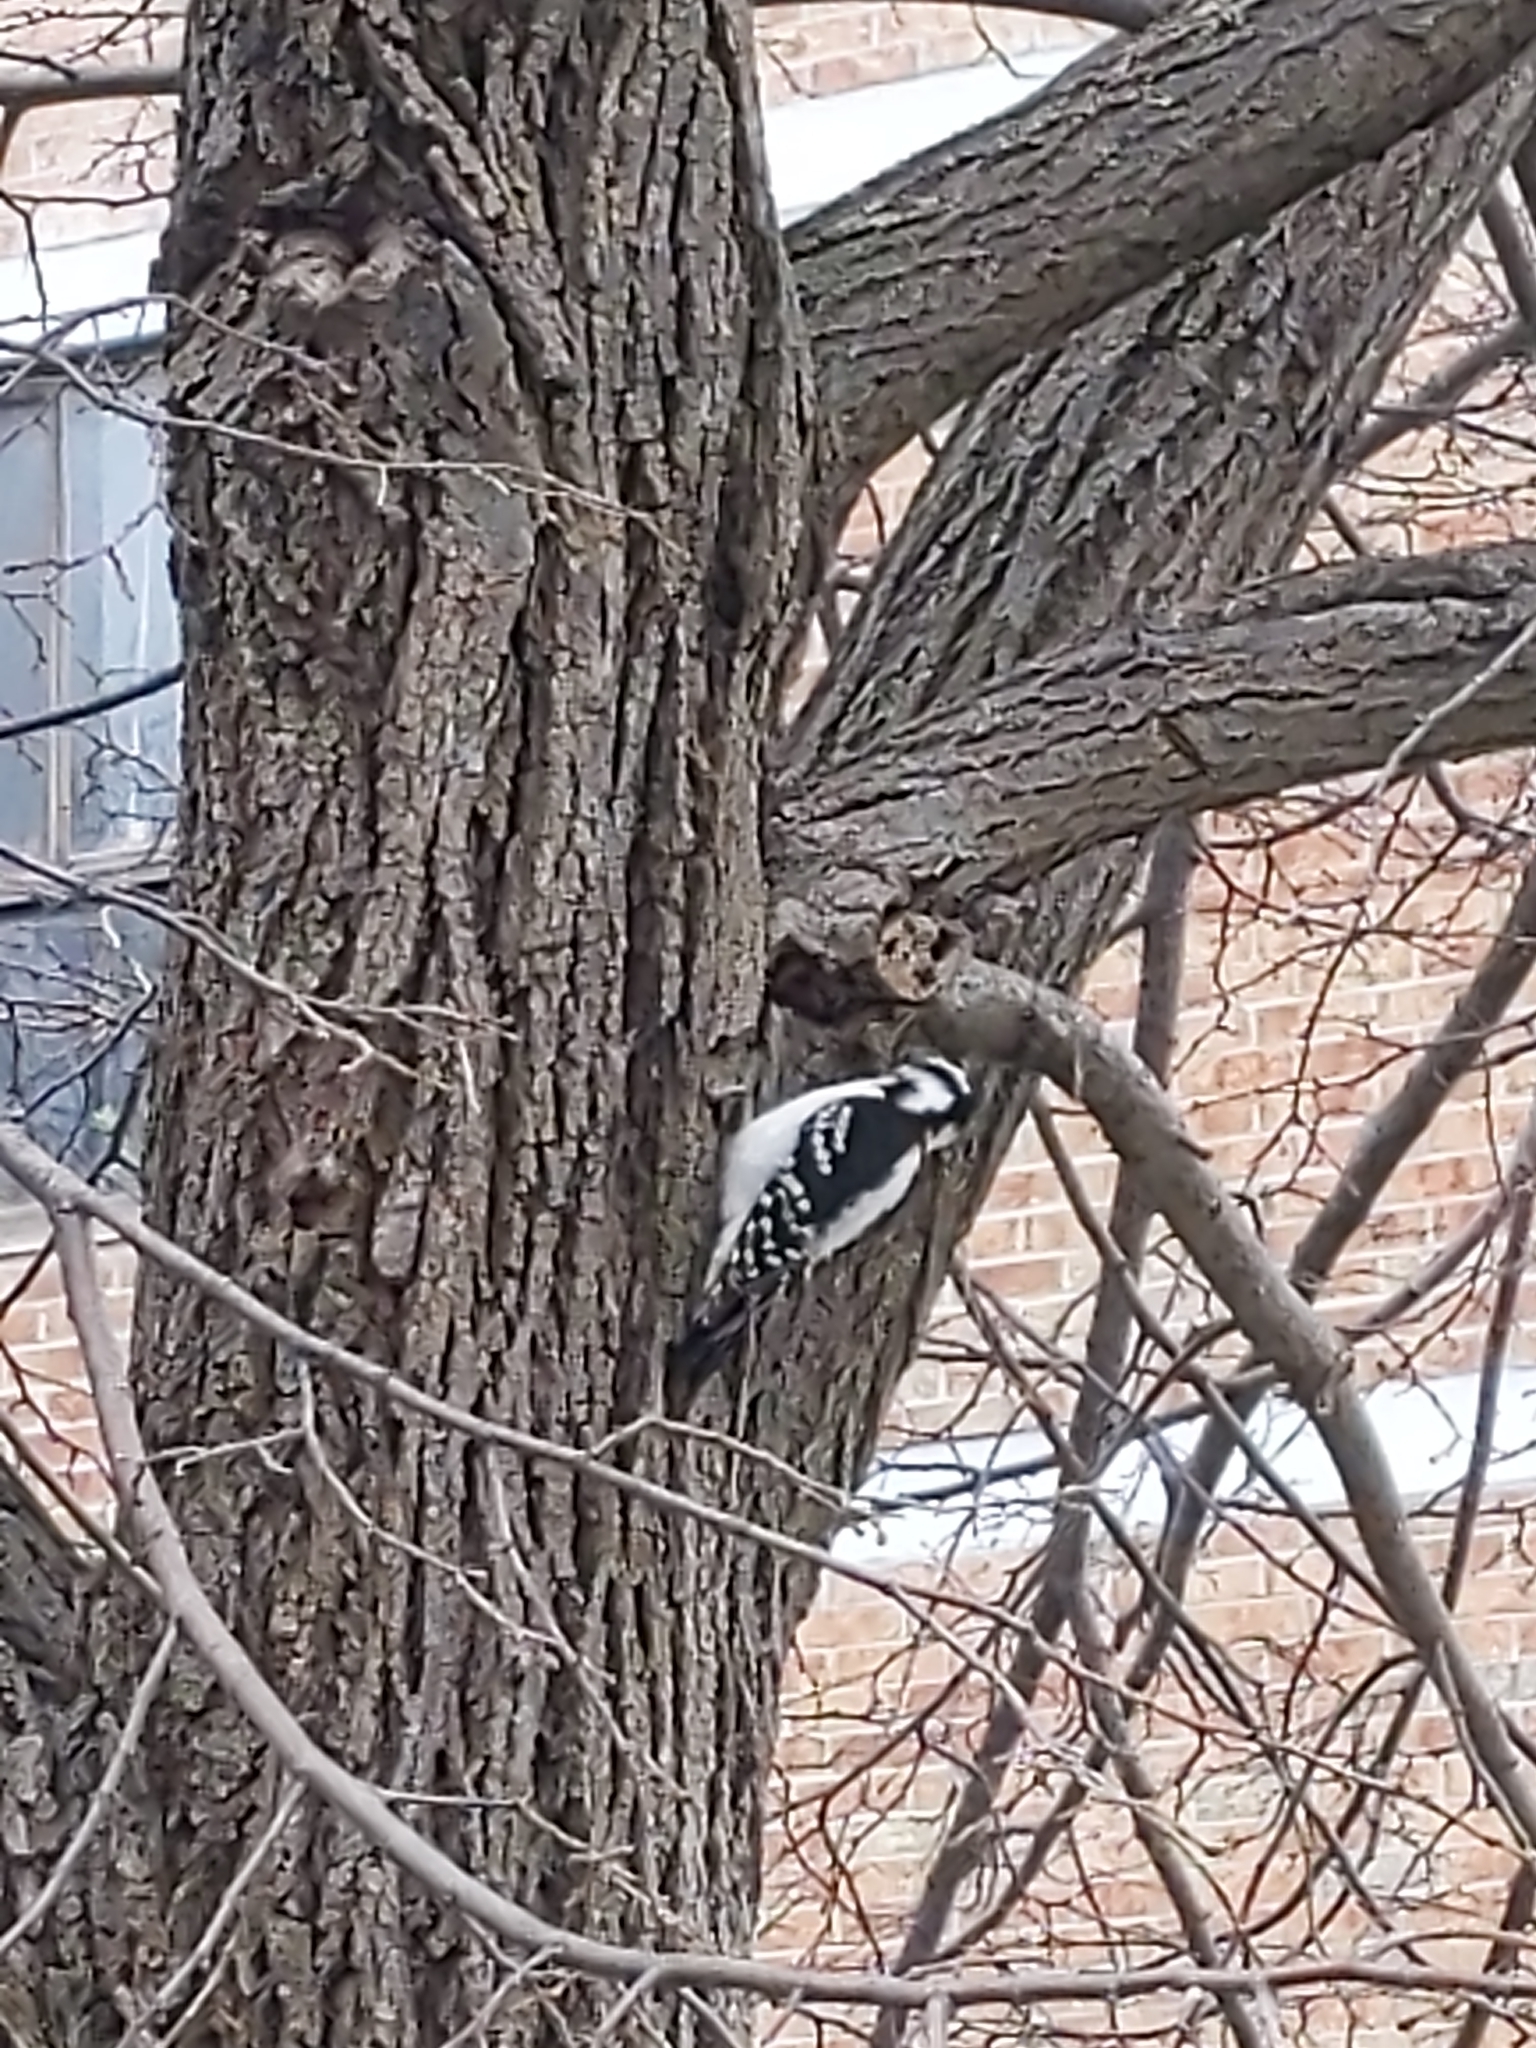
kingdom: Animalia
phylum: Chordata
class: Aves
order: Piciformes
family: Picidae
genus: Leuconotopicus
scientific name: Leuconotopicus villosus
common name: Hairy woodpecker
